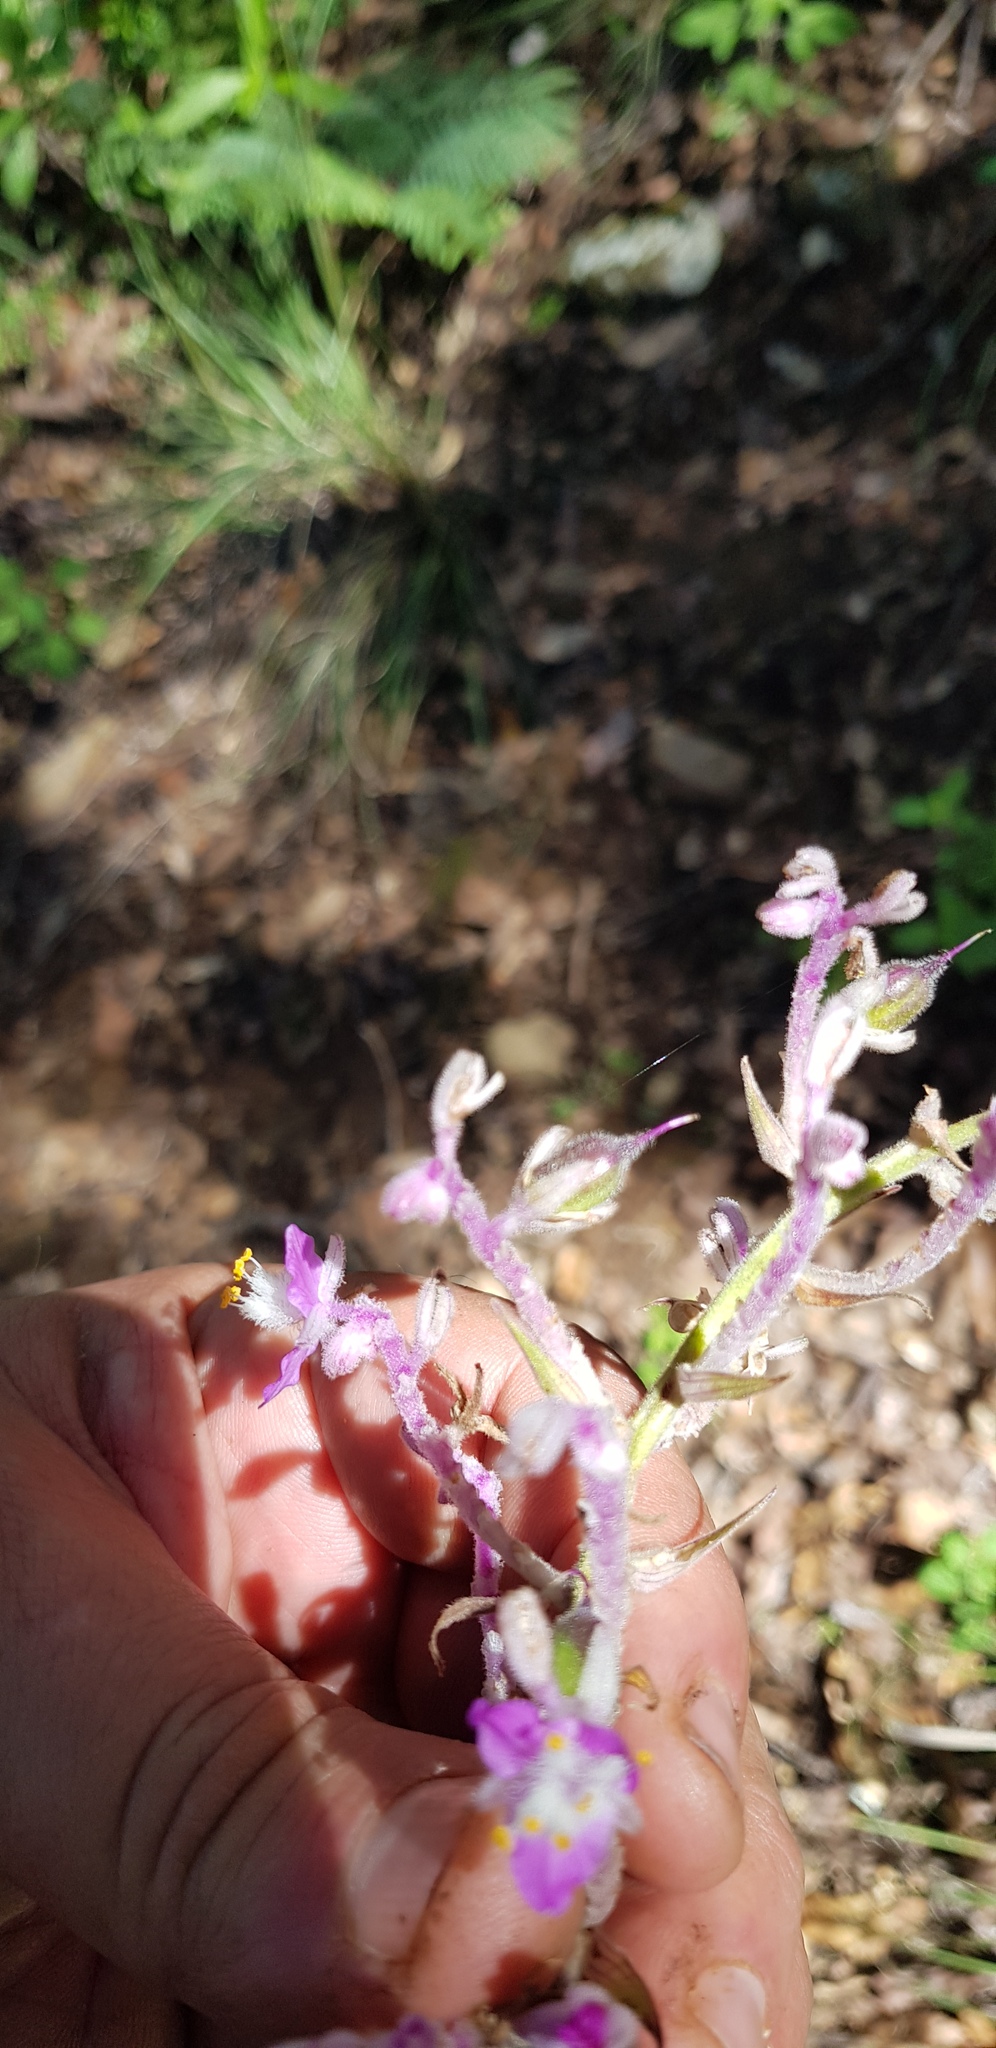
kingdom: Plantae
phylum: Tracheophyta
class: Liliopsida
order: Commelinales
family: Commelinaceae
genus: Thyrsanthemum
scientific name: Thyrsanthemum floribundum
